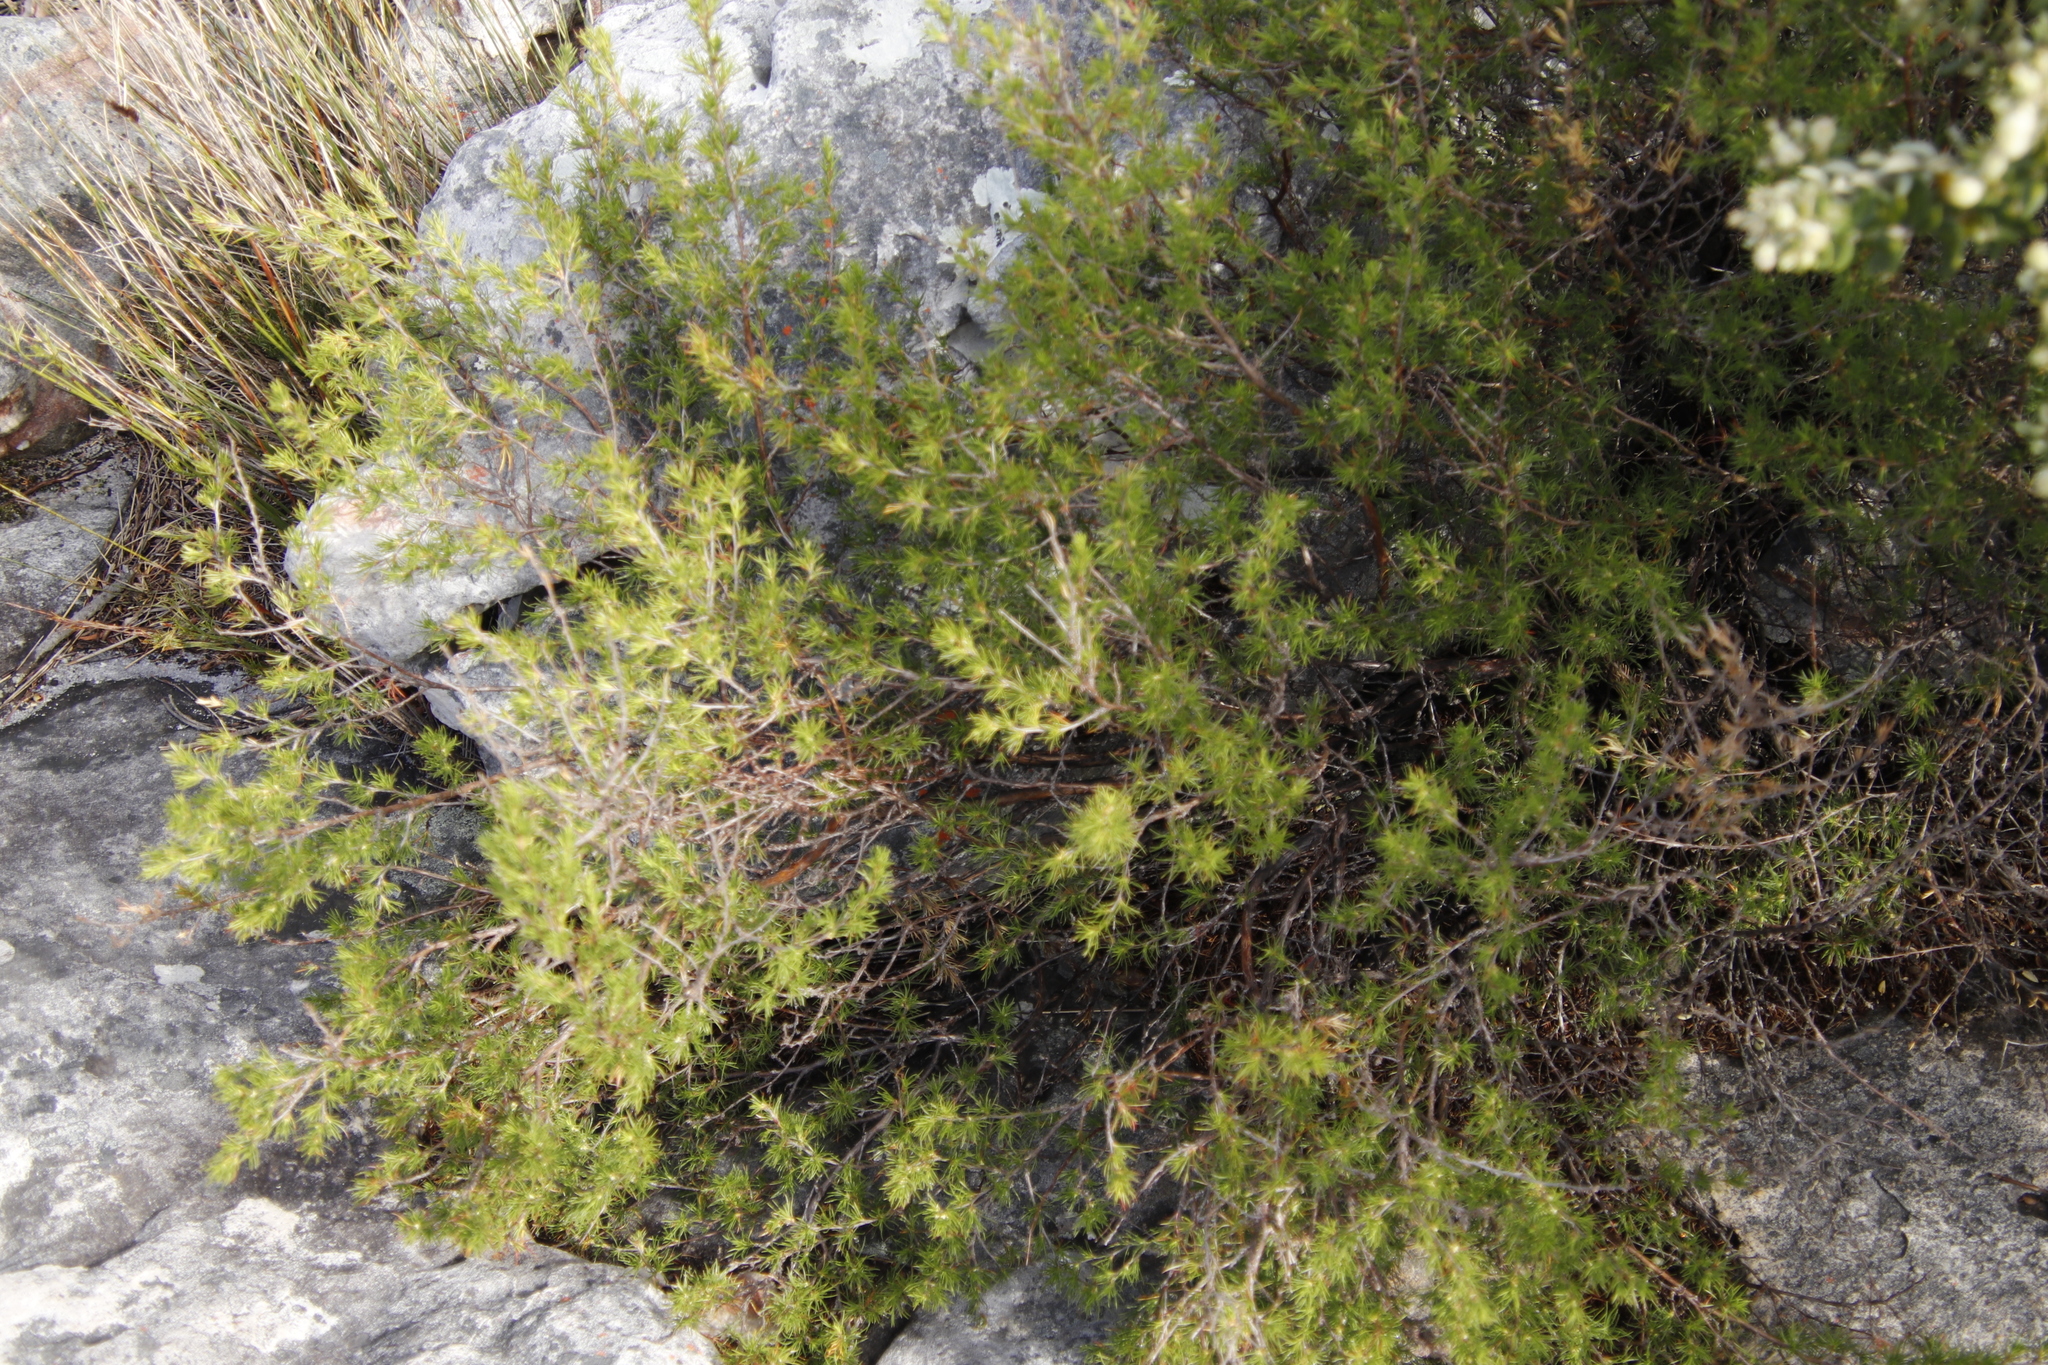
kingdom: Plantae
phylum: Tracheophyta
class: Magnoliopsida
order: Rosales
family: Rosaceae
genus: Cliffortia
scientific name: Cliffortia atrata
